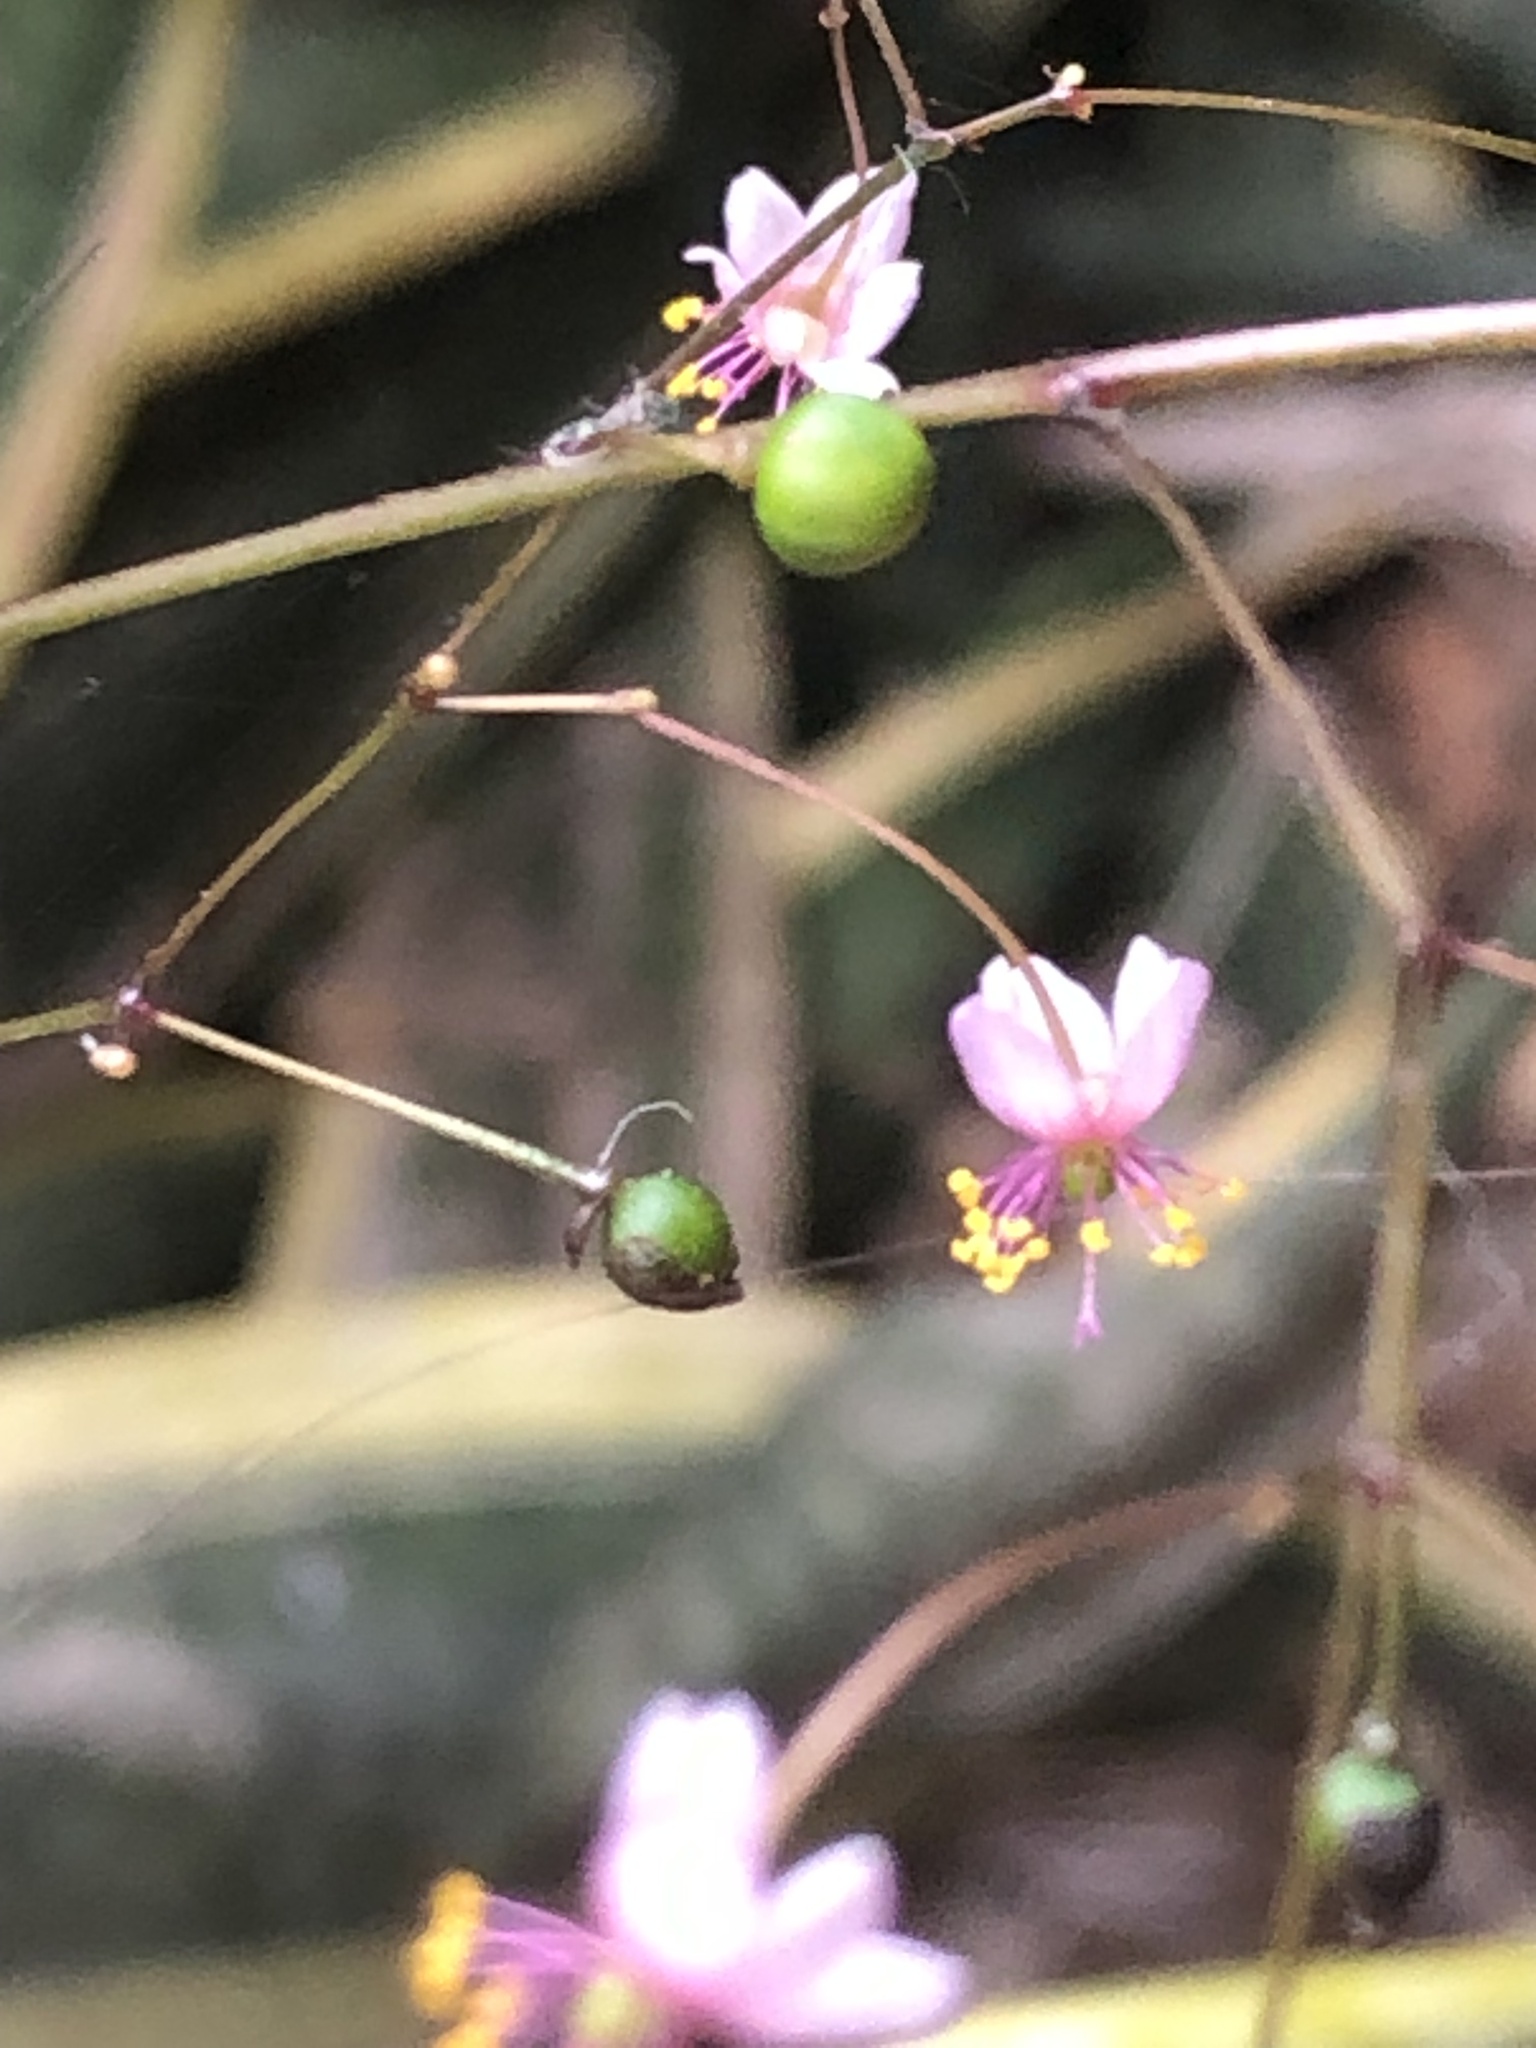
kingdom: Plantae
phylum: Tracheophyta
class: Magnoliopsida
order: Caryophyllales
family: Talinaceae
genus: Talinum
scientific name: Talinum paniculatum
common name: Jewels of opar
